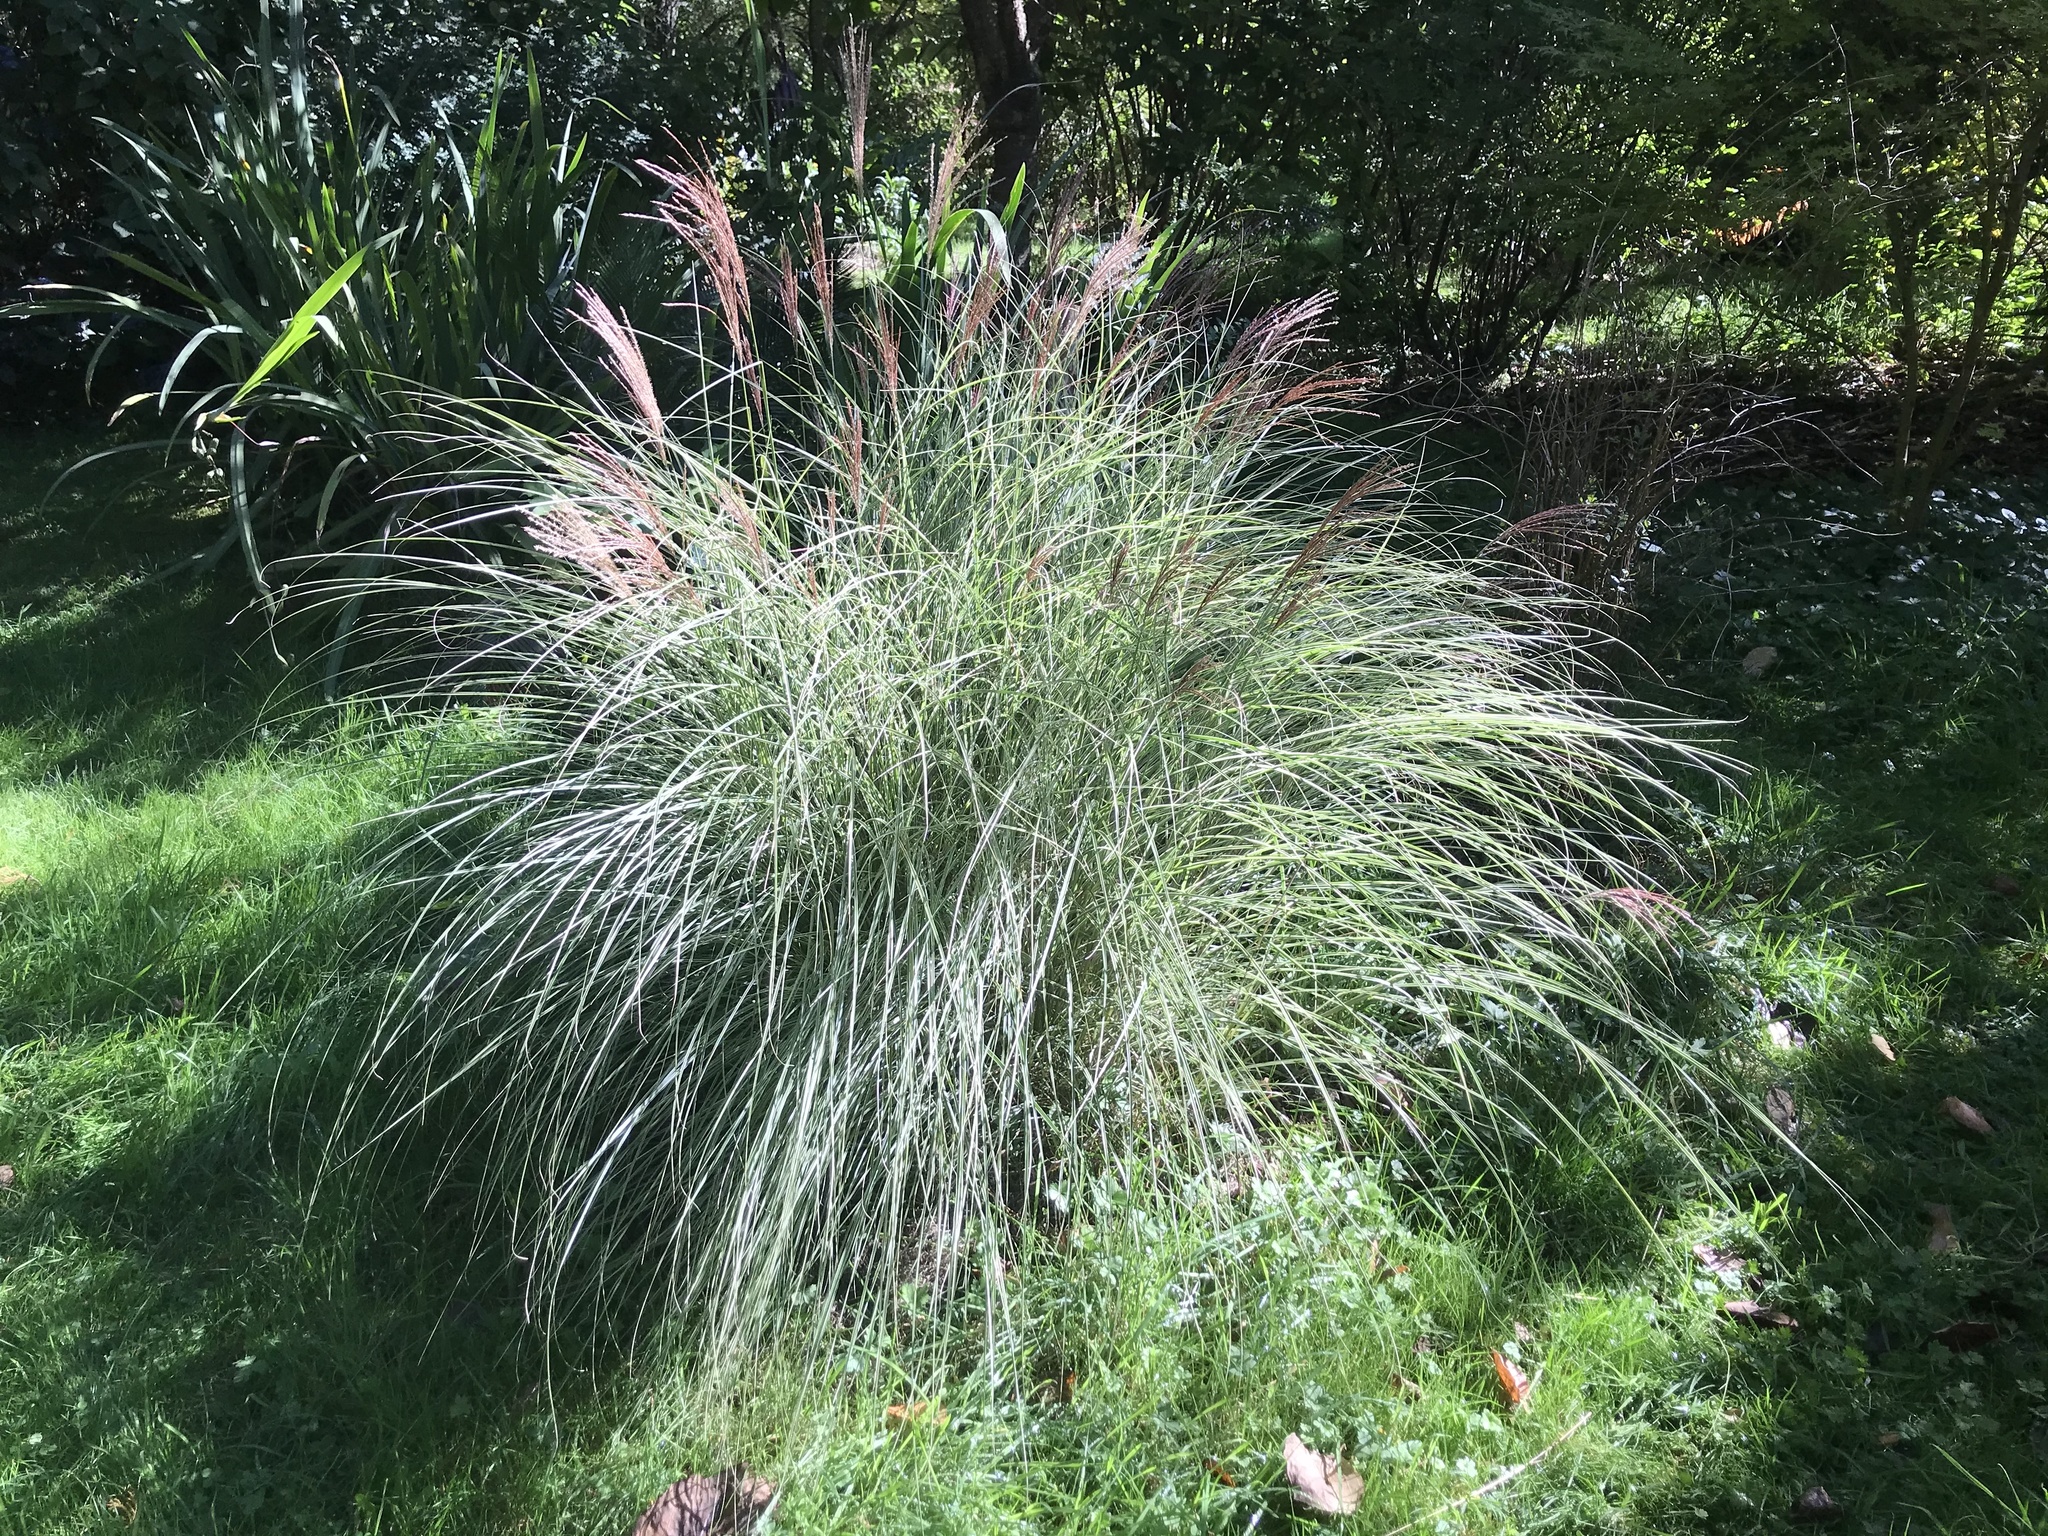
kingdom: Plantae
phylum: Tracheophyta
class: Liliopsida
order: Poales
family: Poaceae
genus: Miscanthus
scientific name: Miscanthus sinensis
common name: Chinese silvergrass
